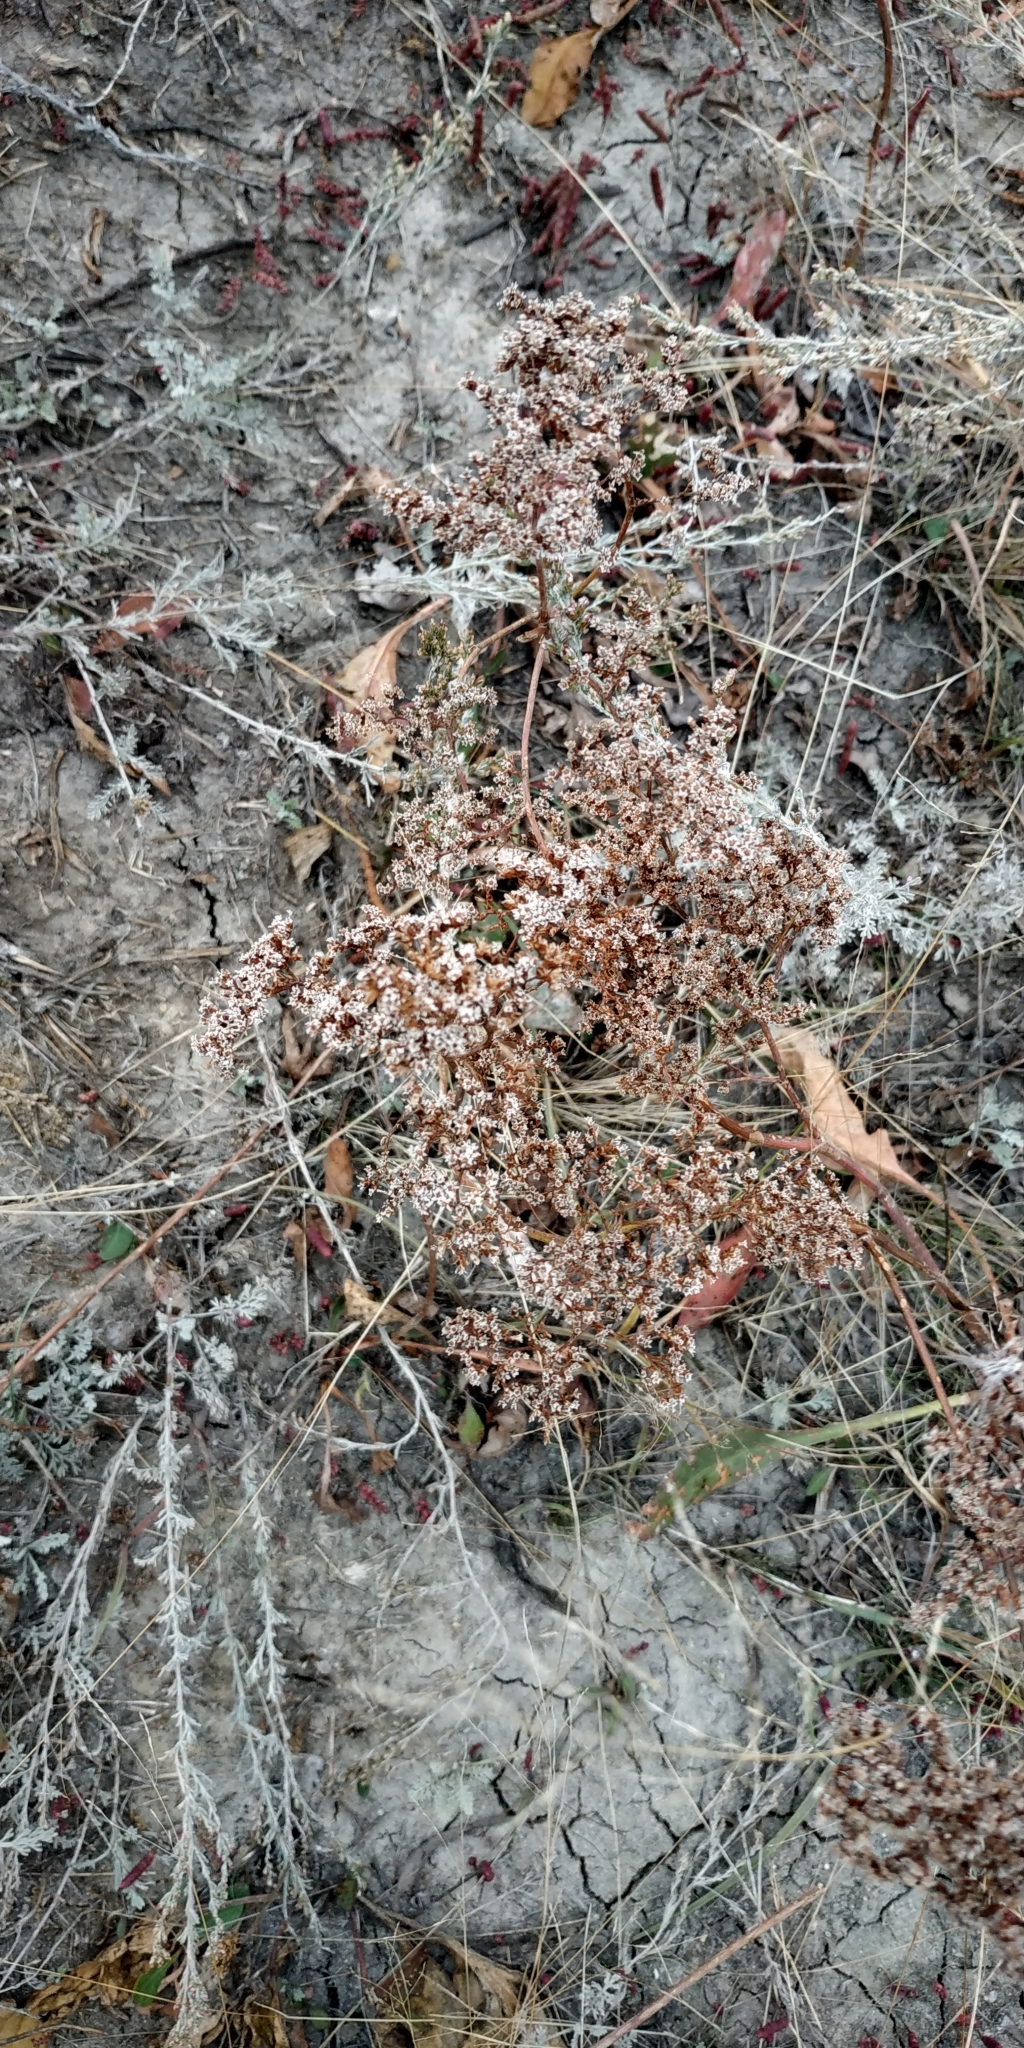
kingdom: Plantae
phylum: Tracheophyta
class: Magnoliopsida
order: Caryophyllales
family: Plumbaginaceae
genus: Limonium
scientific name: Limonium gmelini
